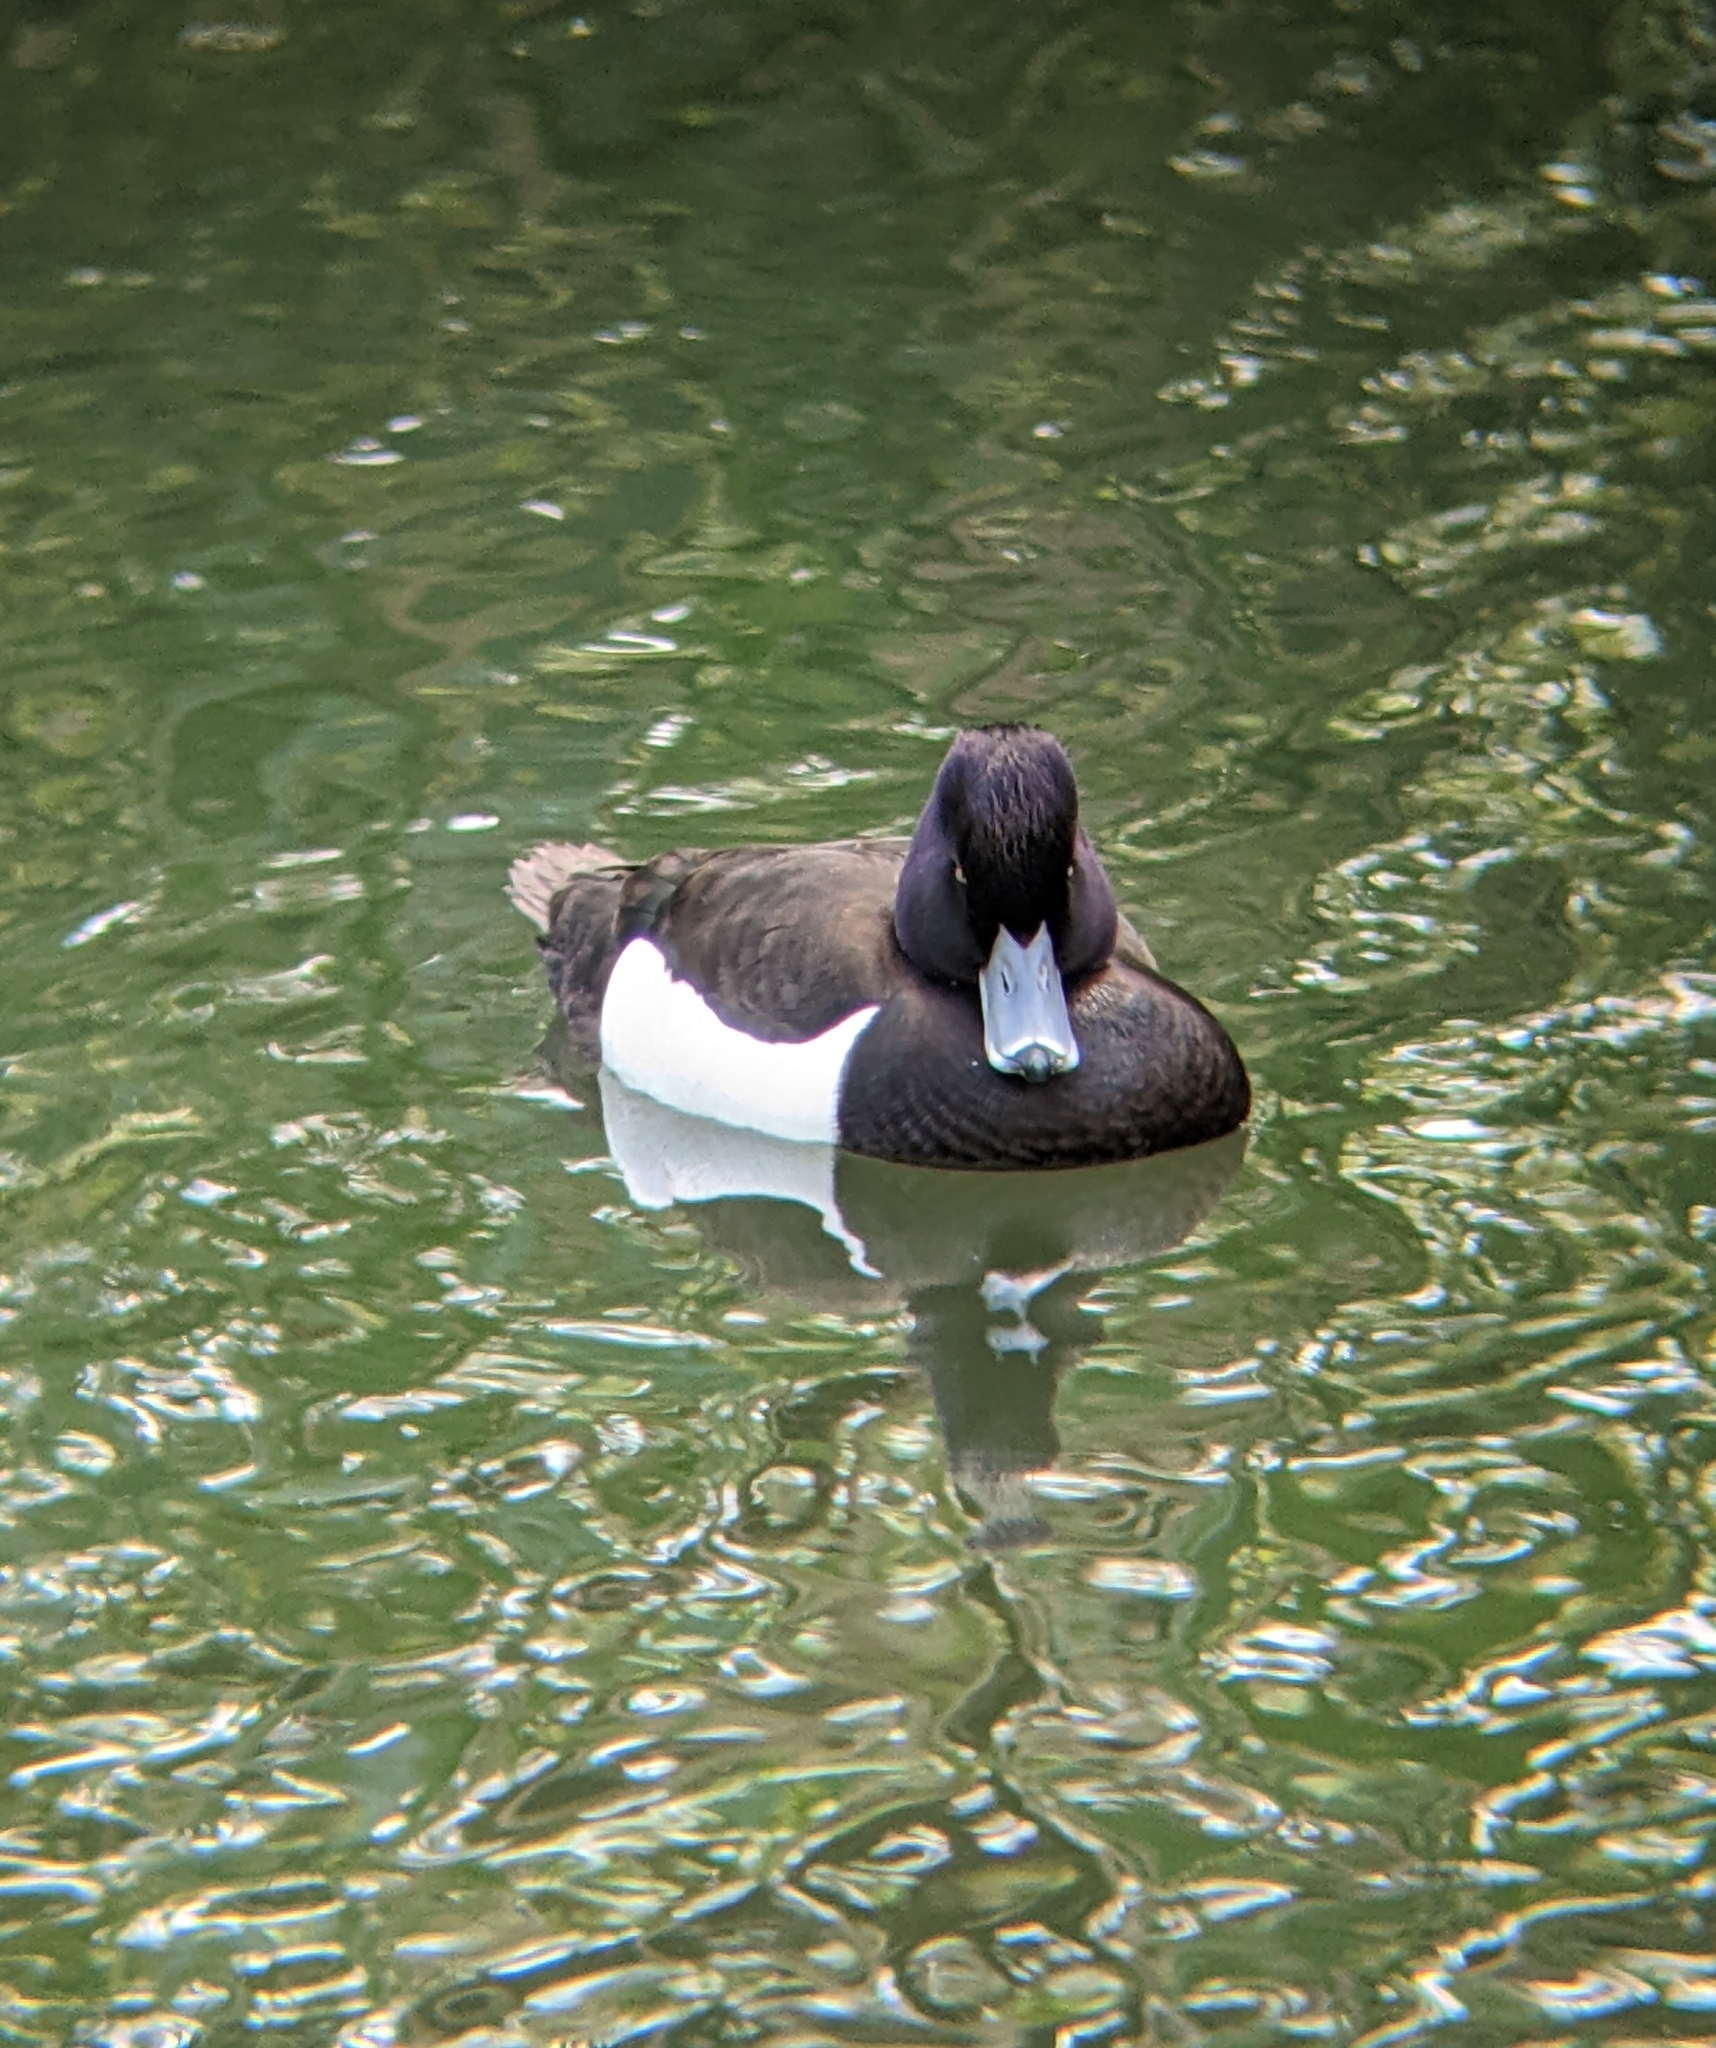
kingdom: Animalia
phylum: Chordata
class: Aves
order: Anseriformes
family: Anatidae
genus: Aythya
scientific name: Aythya fuligula
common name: Tufted duck
